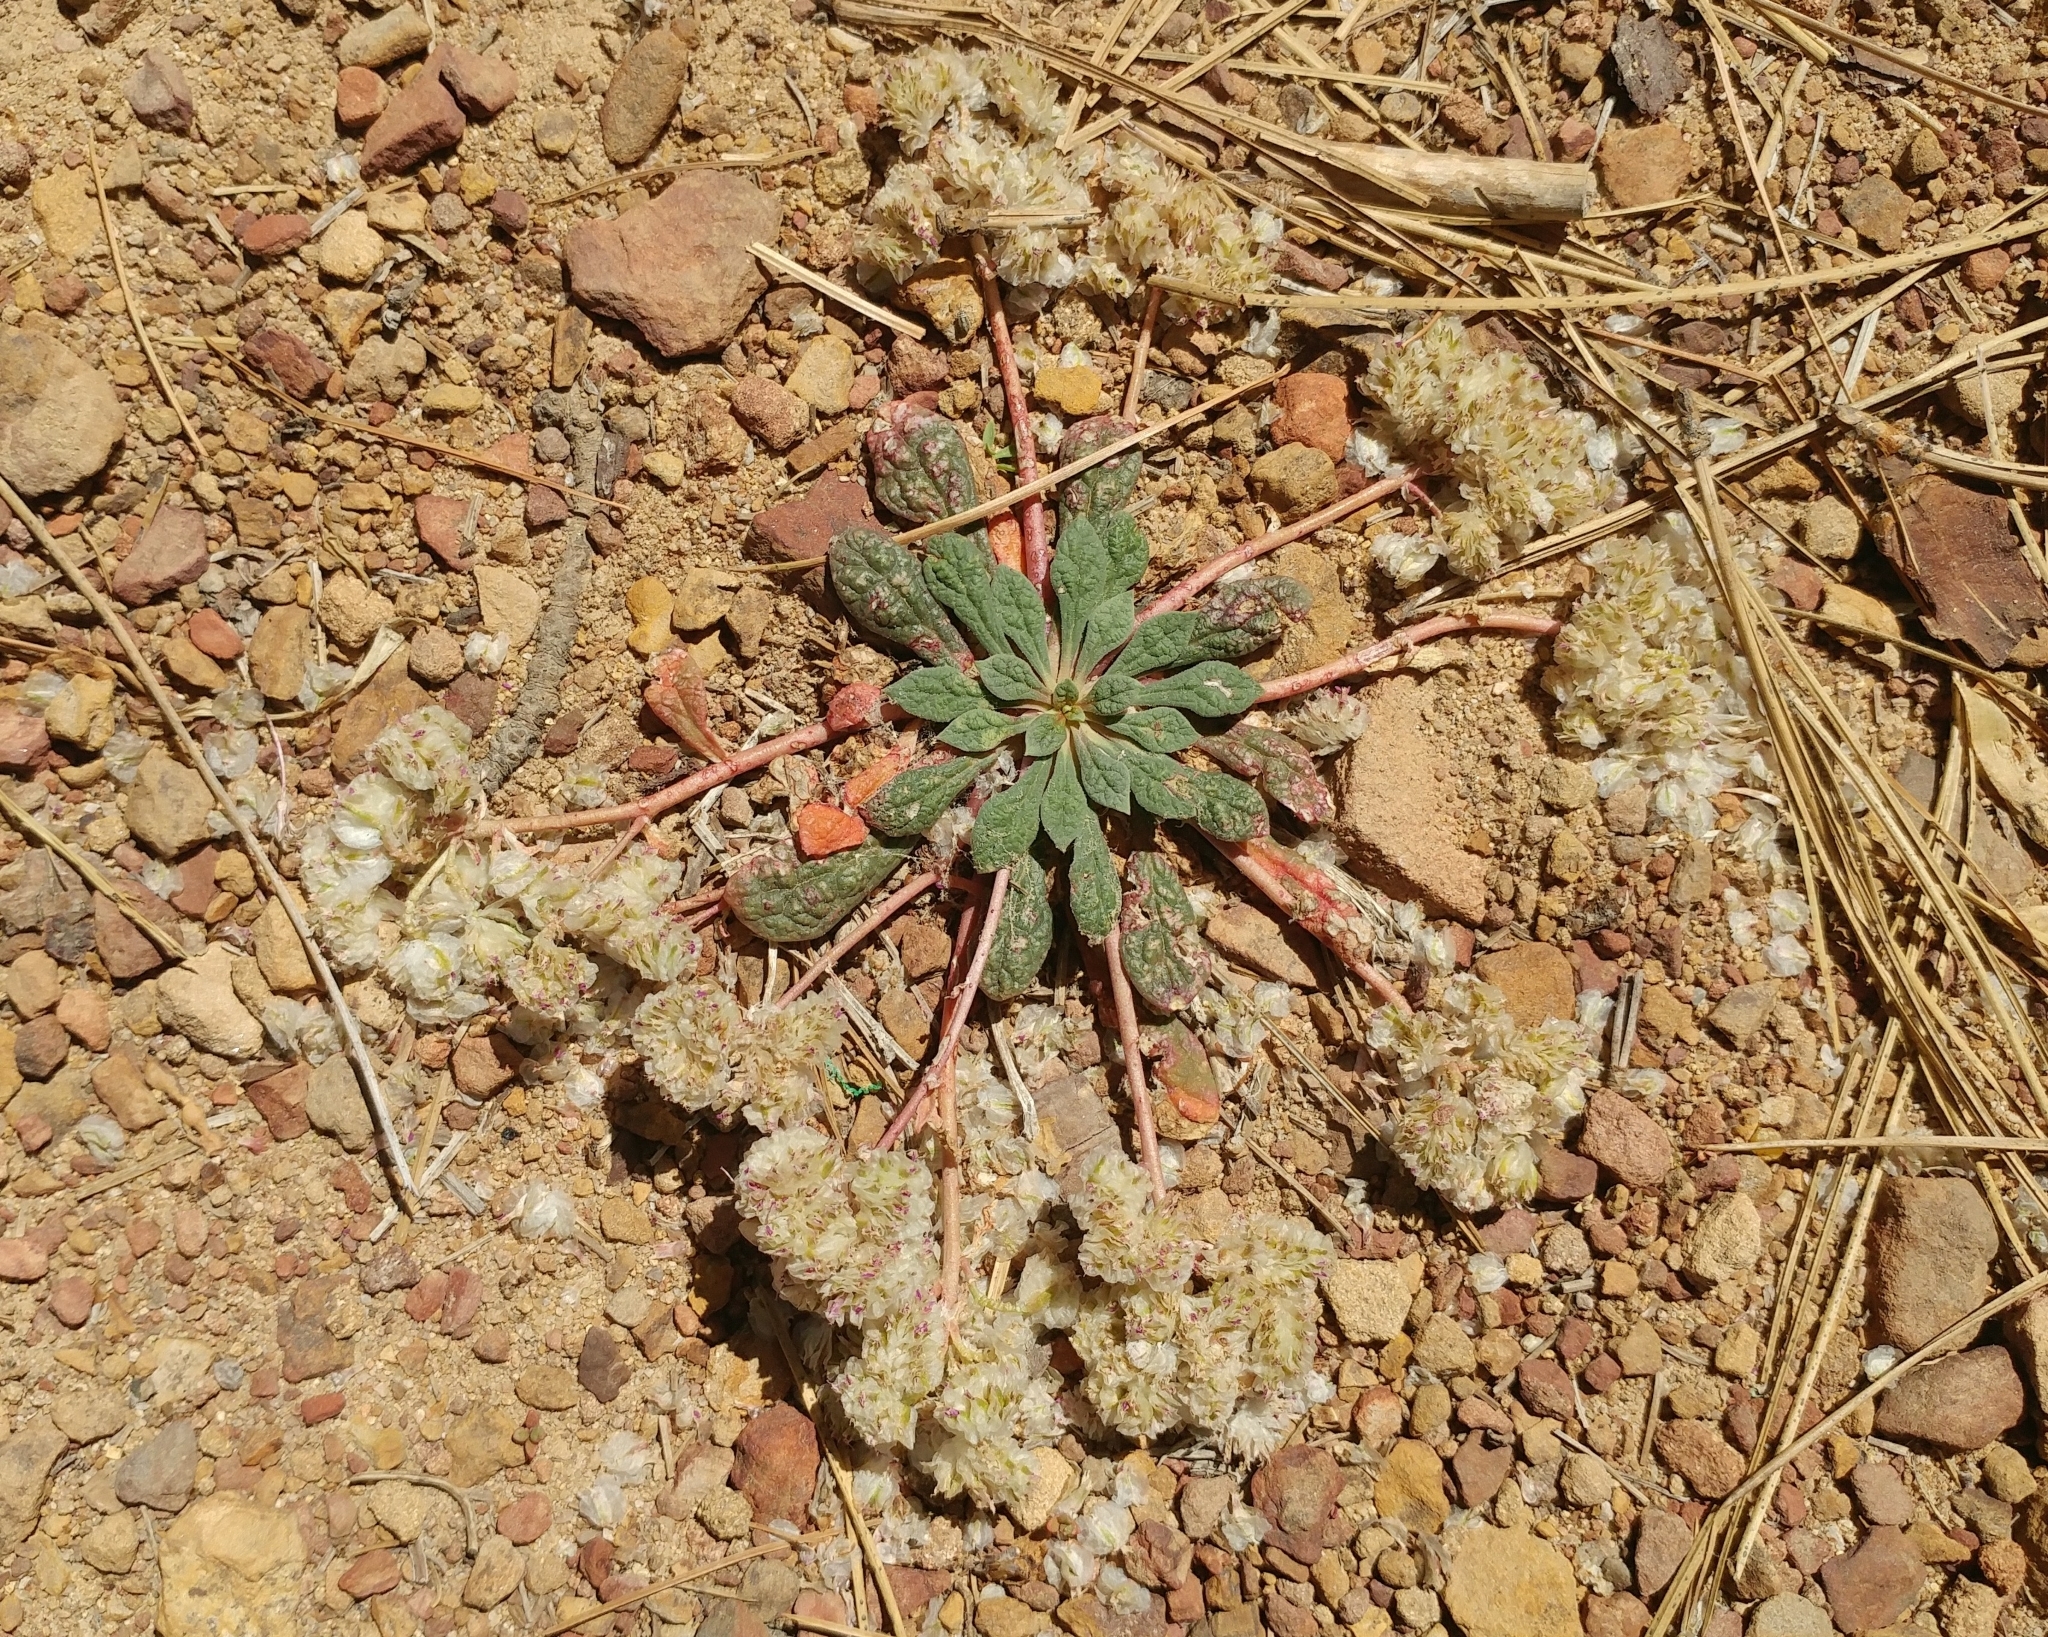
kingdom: Plantae
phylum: Tracheophyta
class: Magnoliopsida
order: Caryophyllales
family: Montiaceae
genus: Calyptridium
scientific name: Calyptridium monospermum
